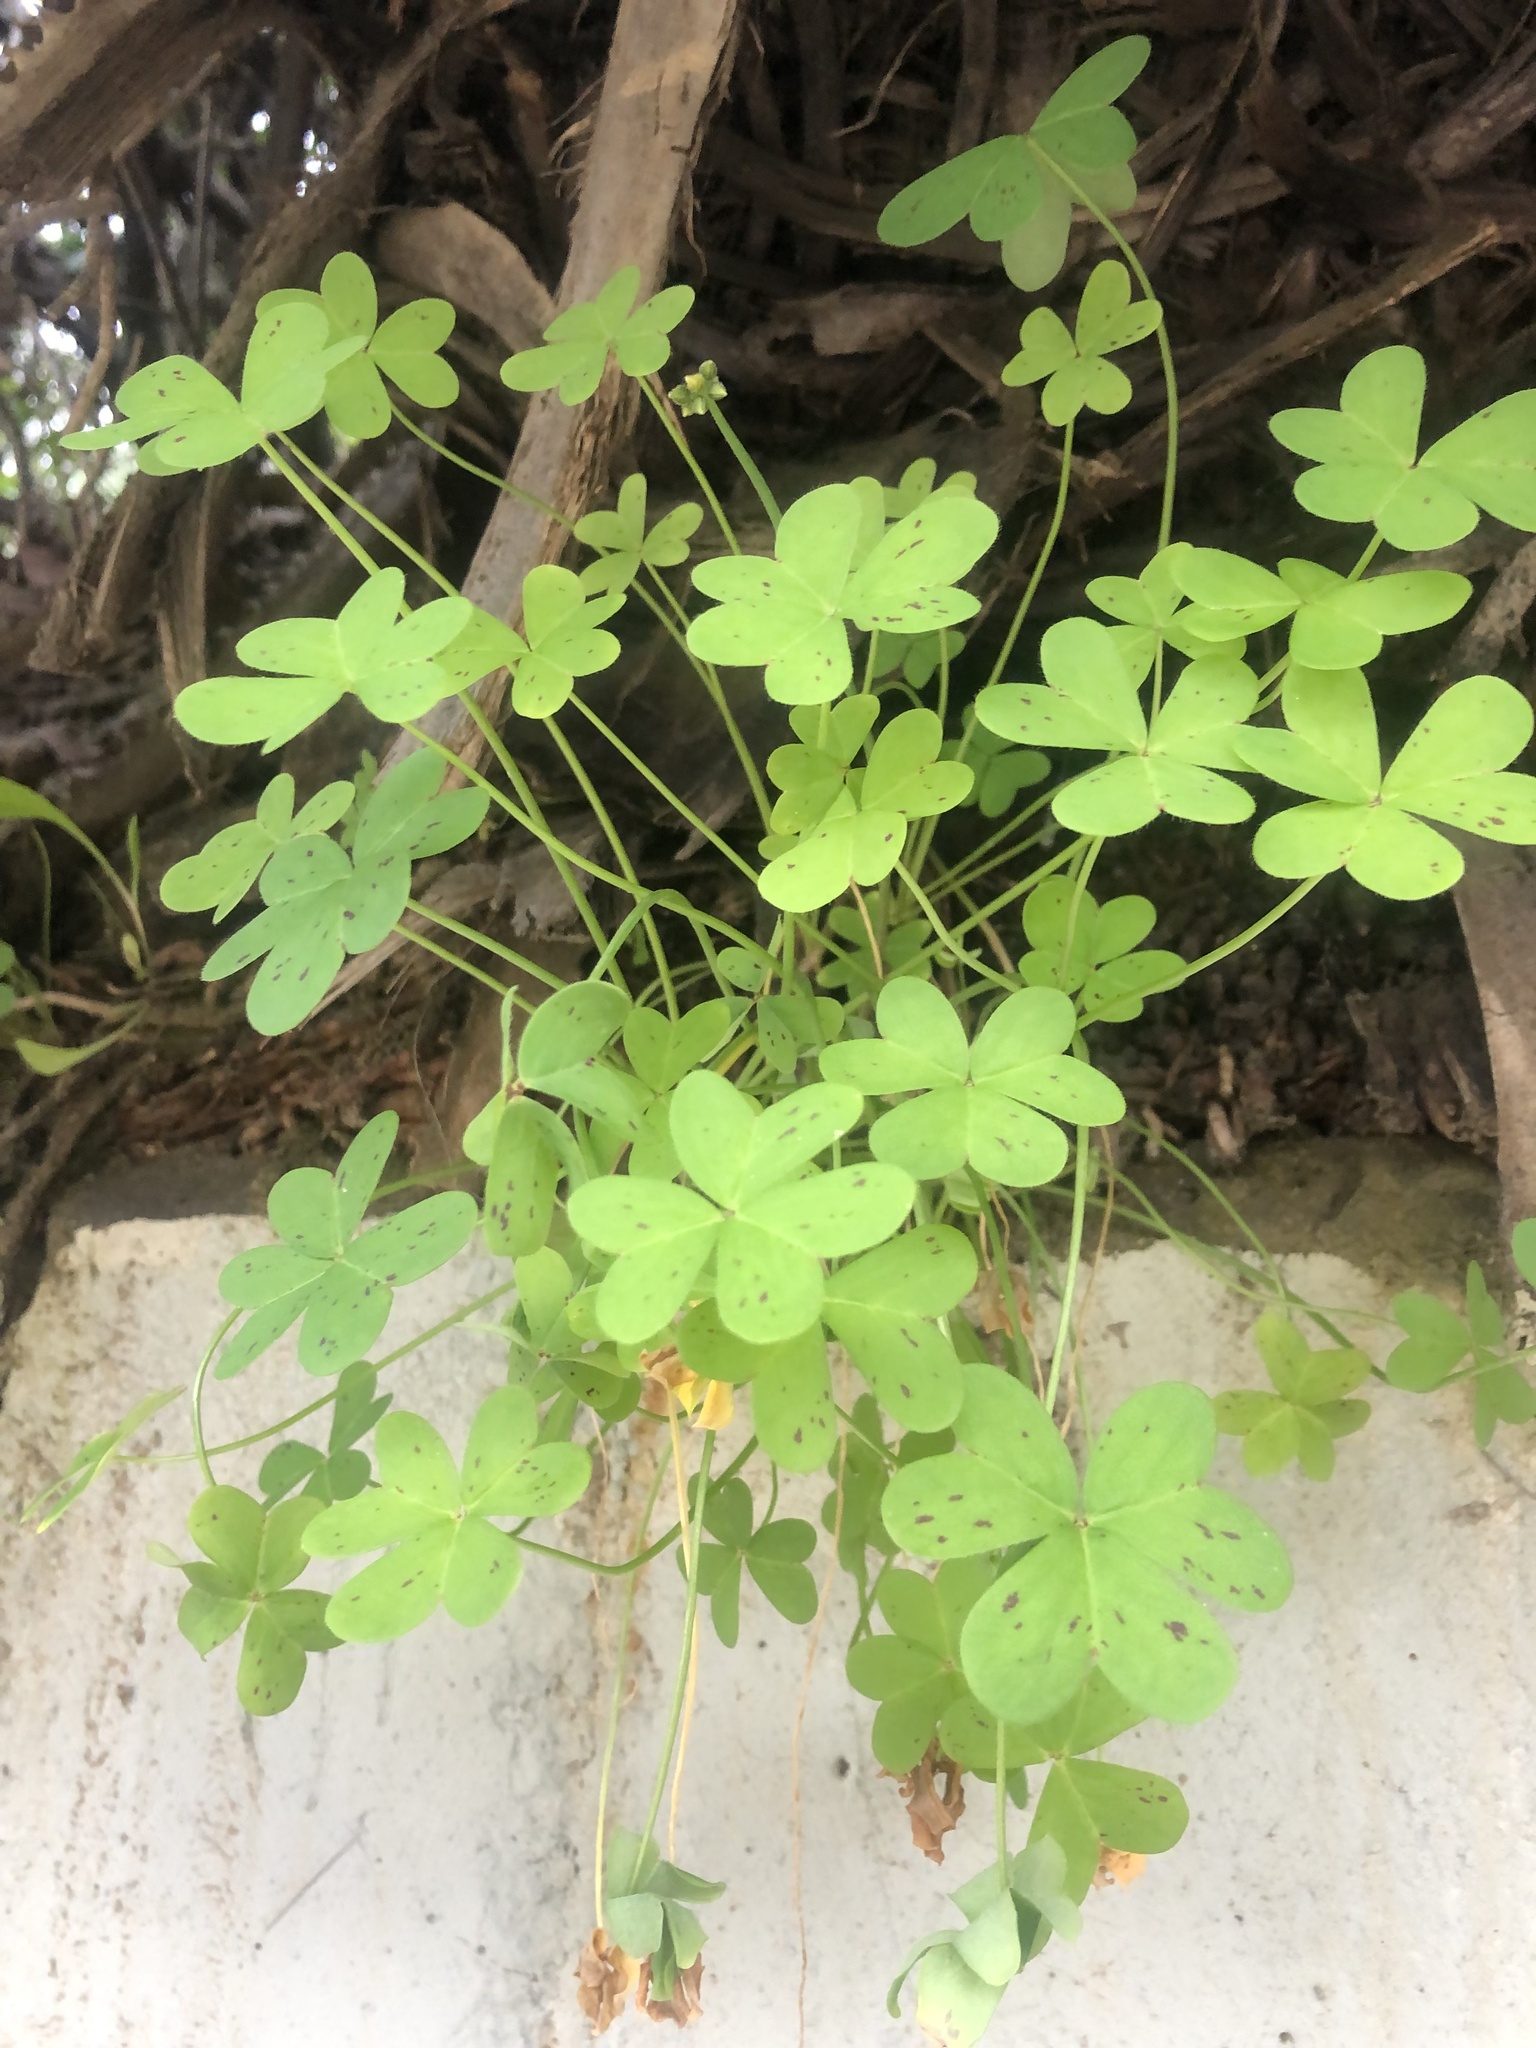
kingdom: Plantae
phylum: Tracheophyta
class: Magnoliopsida
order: Oxalidales
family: Oxalidaceae
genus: Oxalis
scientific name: Oxalis pes-caprae
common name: Bermuda-buttercup
